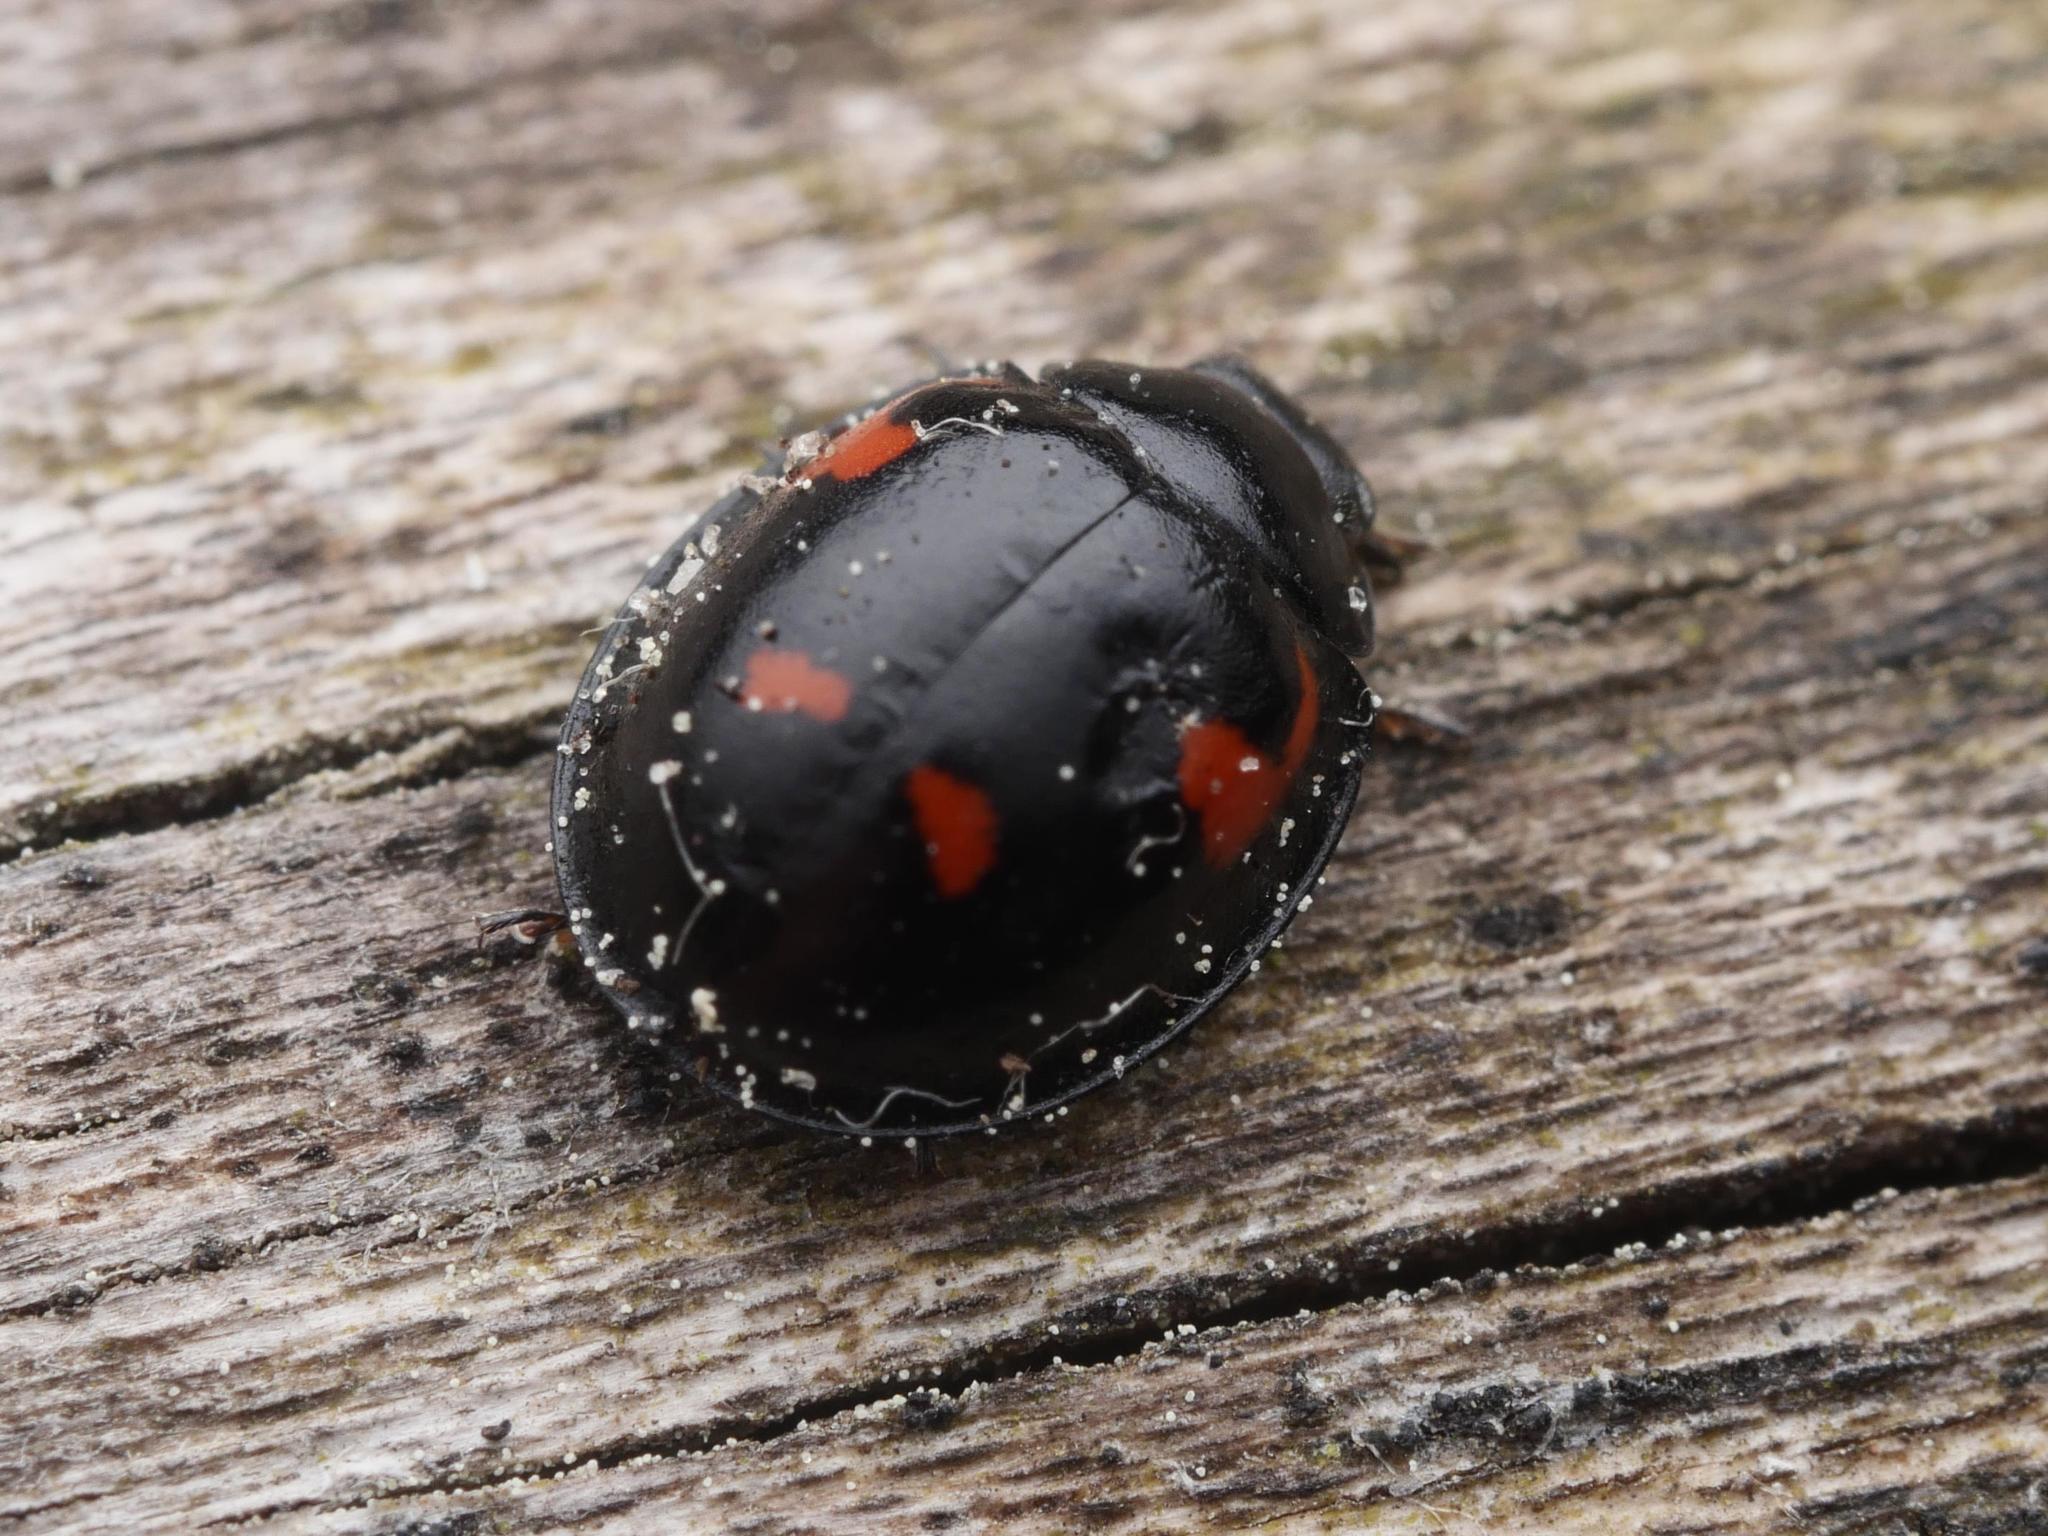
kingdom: Animalia
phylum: Arthropoda
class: Insecta
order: Coleoptera
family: Coccinellidae
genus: Brumus
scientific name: Brumus quadripustulatus
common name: Ladybird beetle
